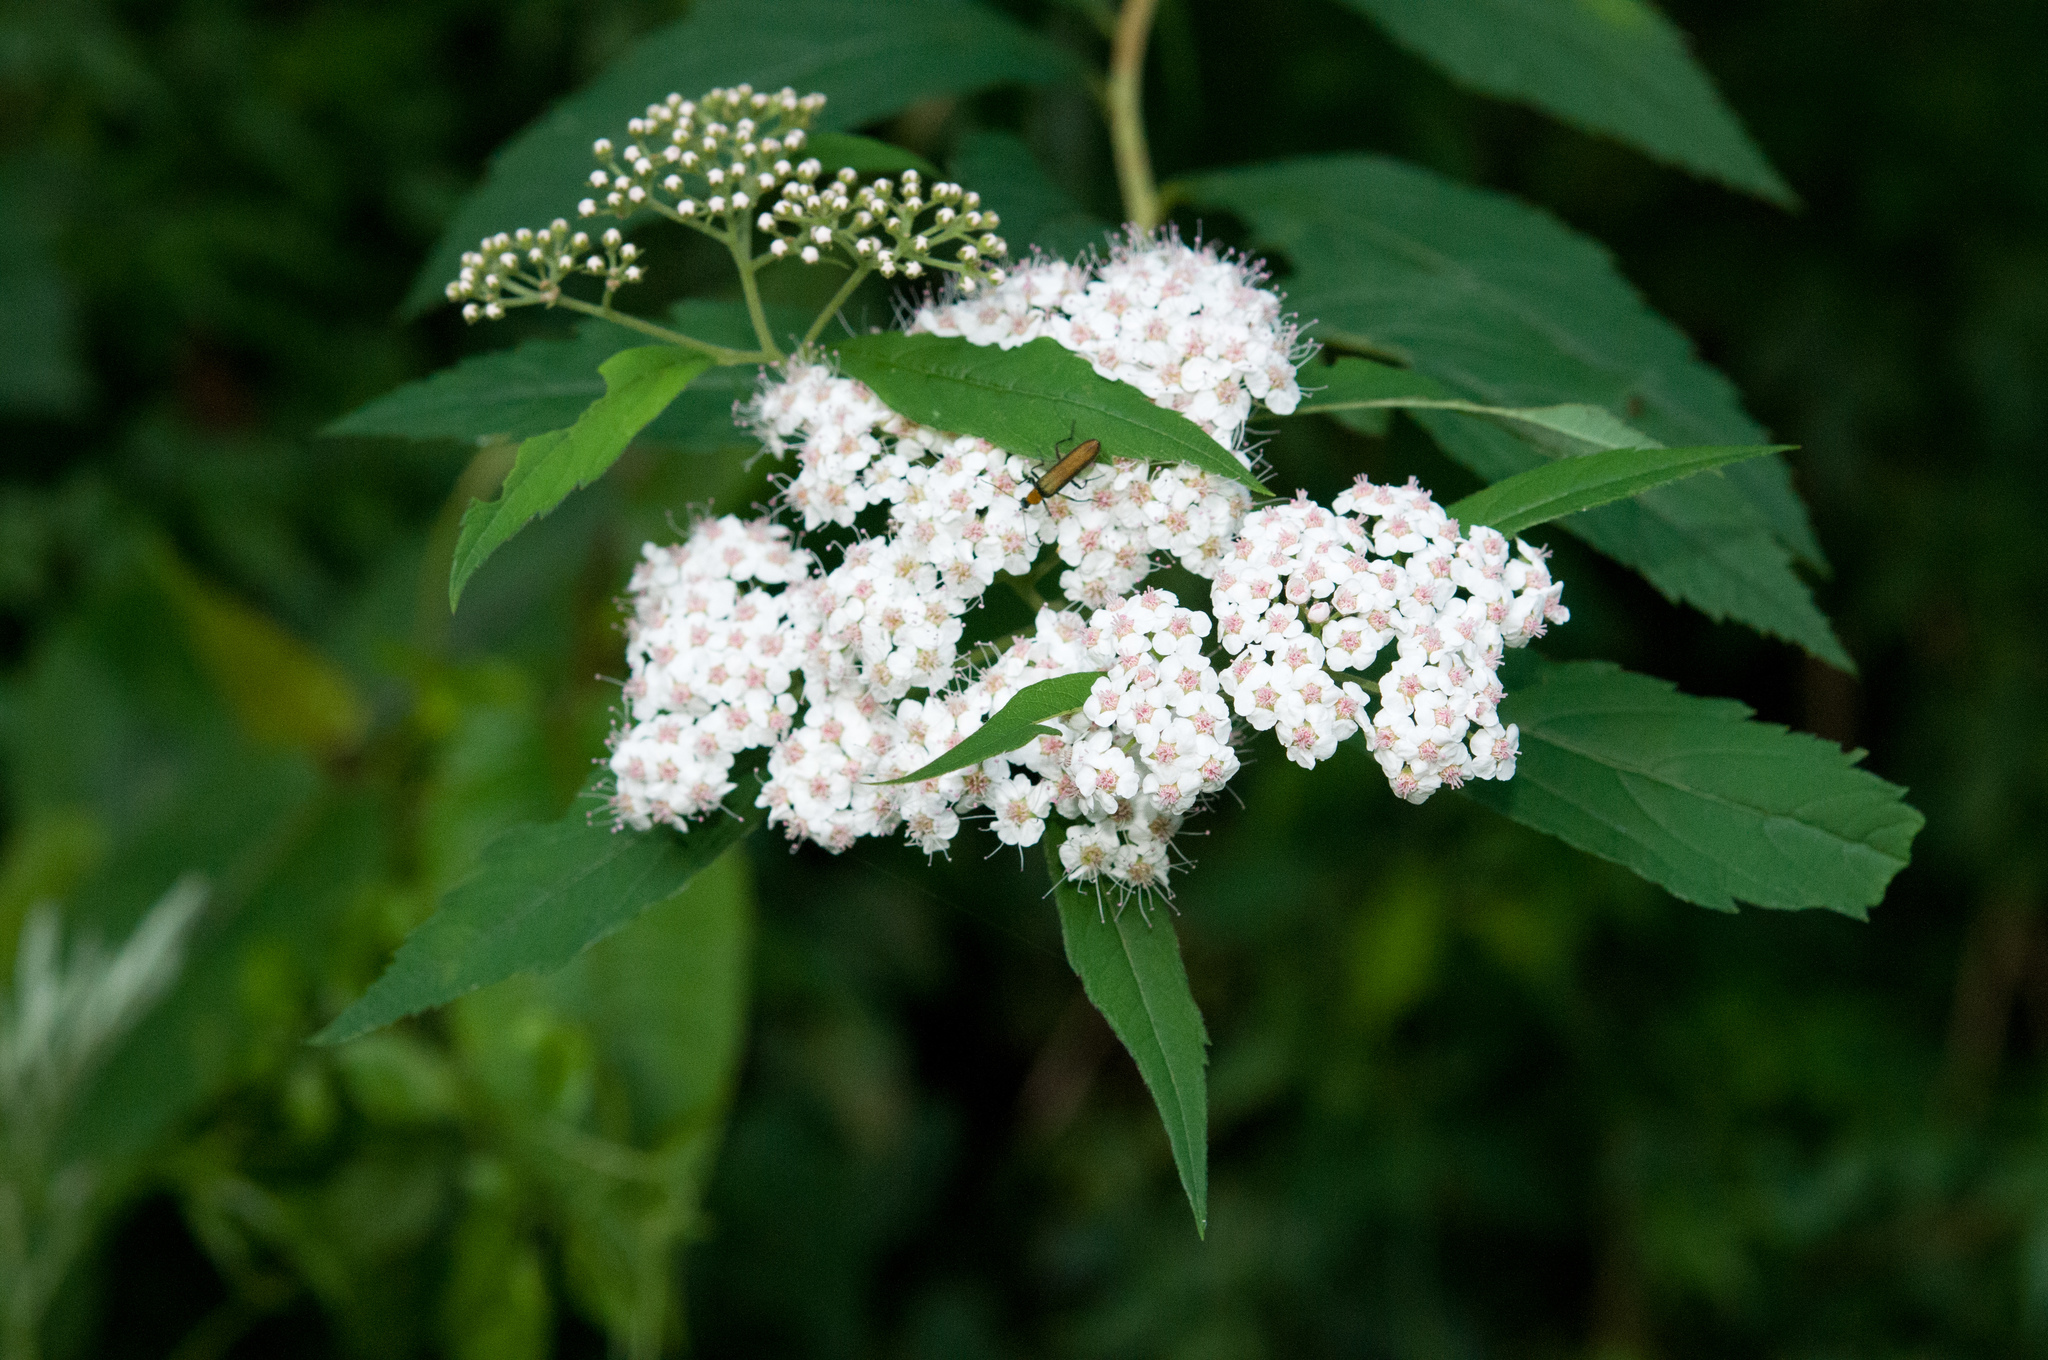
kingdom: Plantae
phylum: Tracheophyta
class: Magnoliopsida
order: Rosales
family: Rosaceae
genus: Spiraea
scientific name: Spiraea japonica
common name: Japanese spiraea
